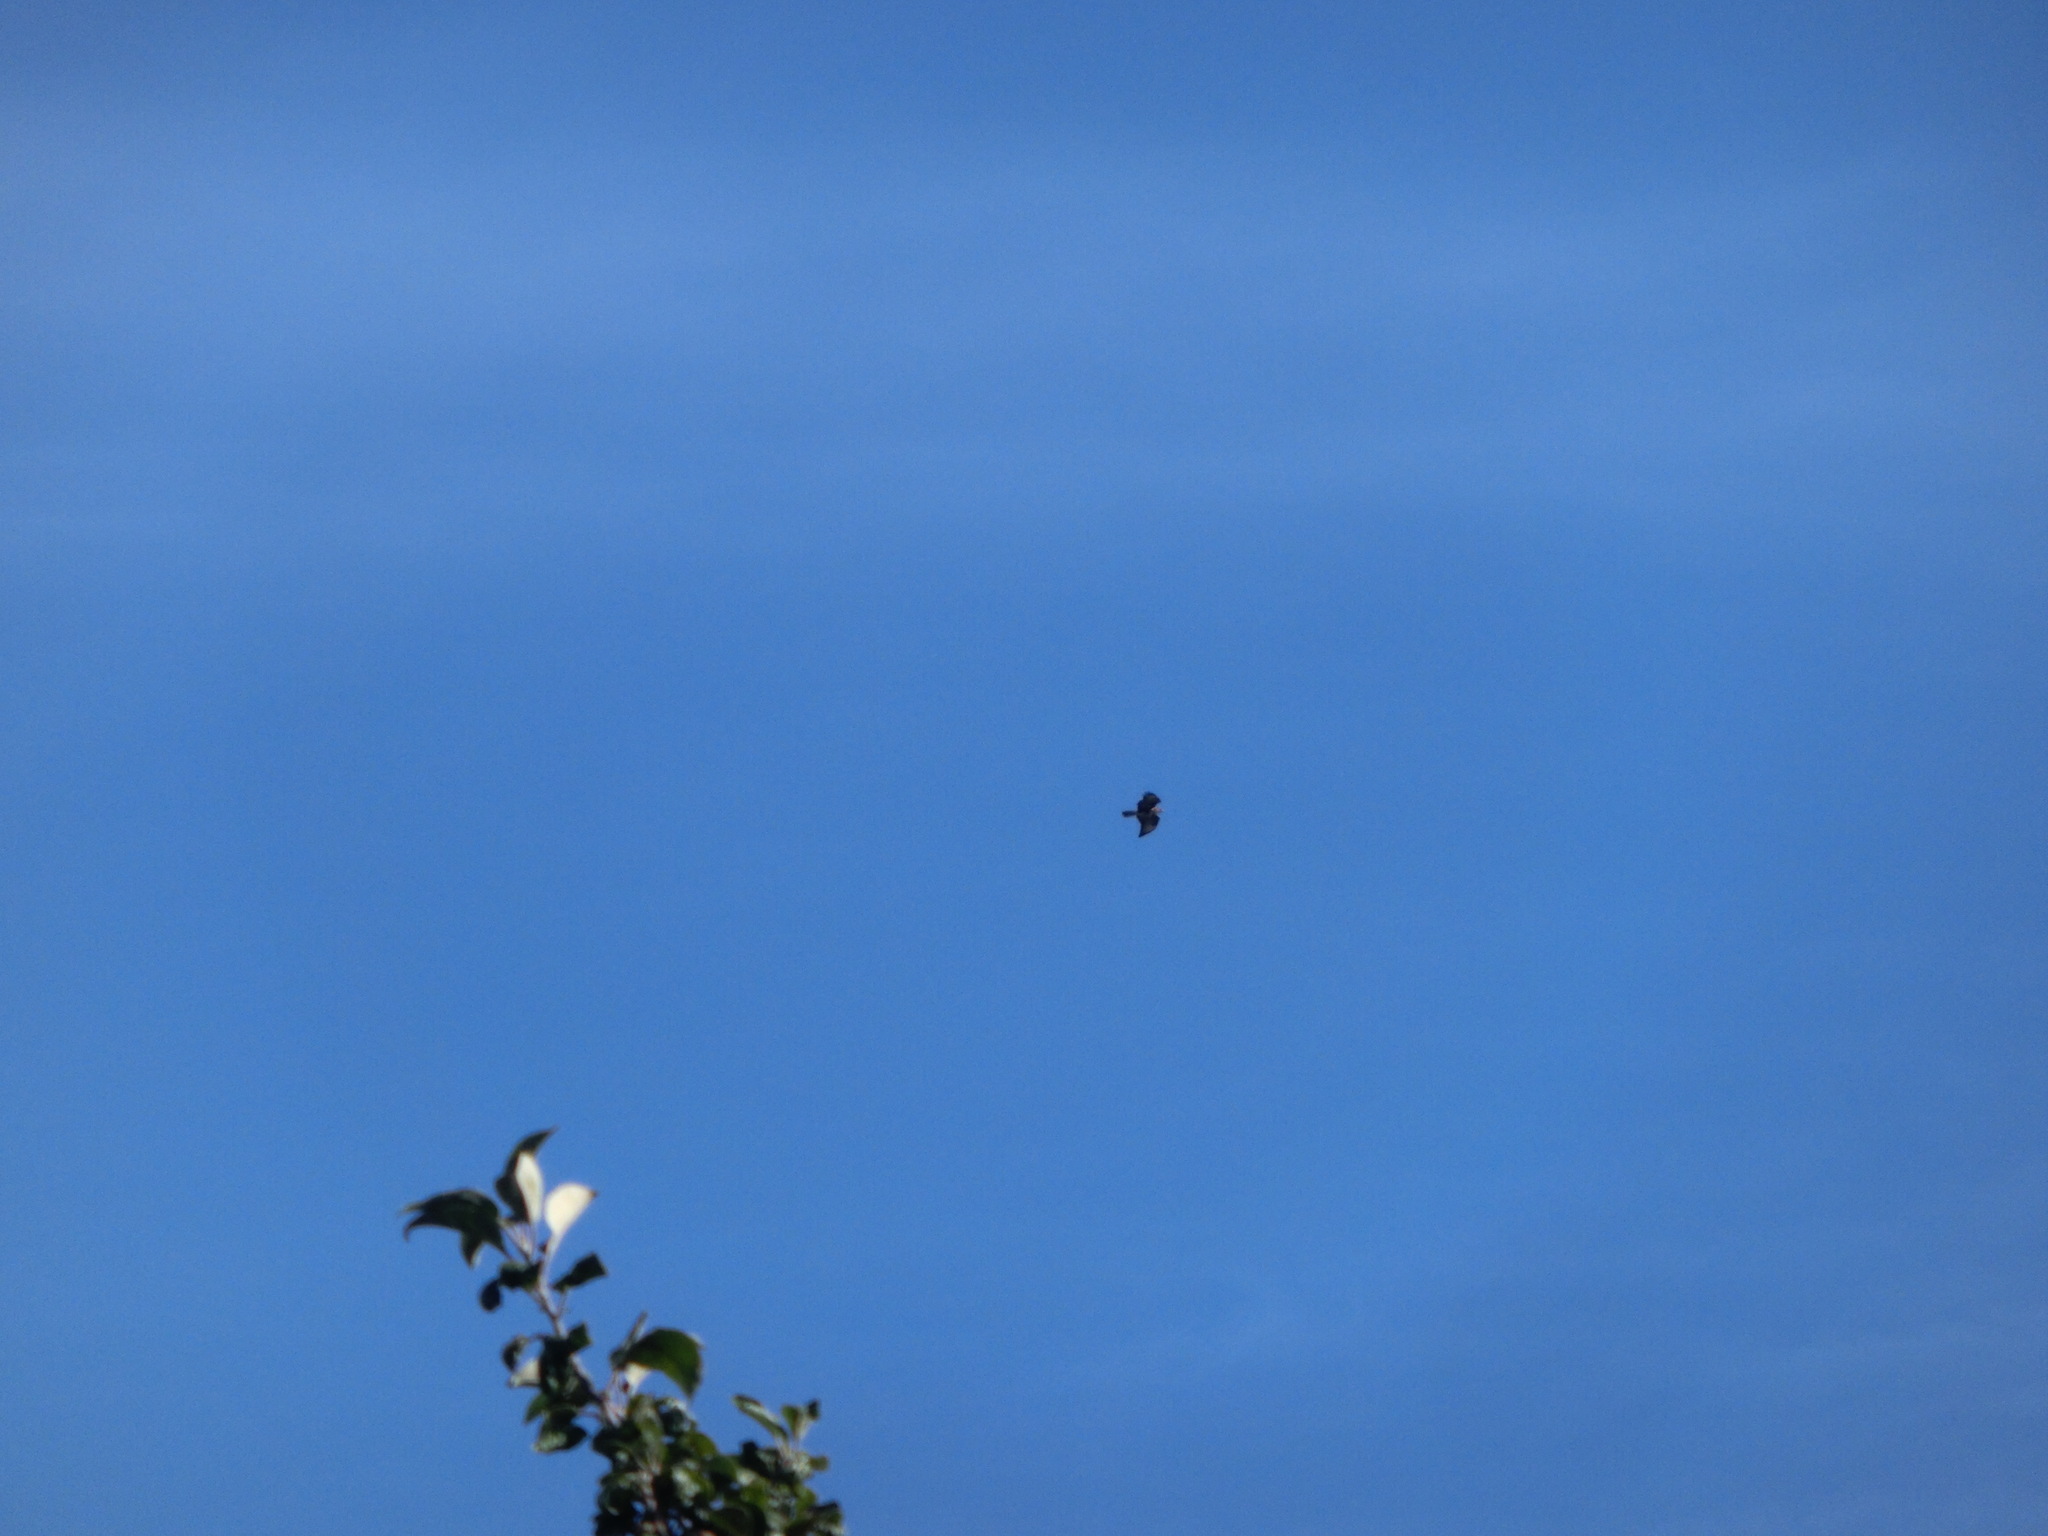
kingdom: Animalia
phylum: Chordata
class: Aves
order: Accipitriformes
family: Accipitridae
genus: Buteo
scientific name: Buteo buteo
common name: Common buzzard
